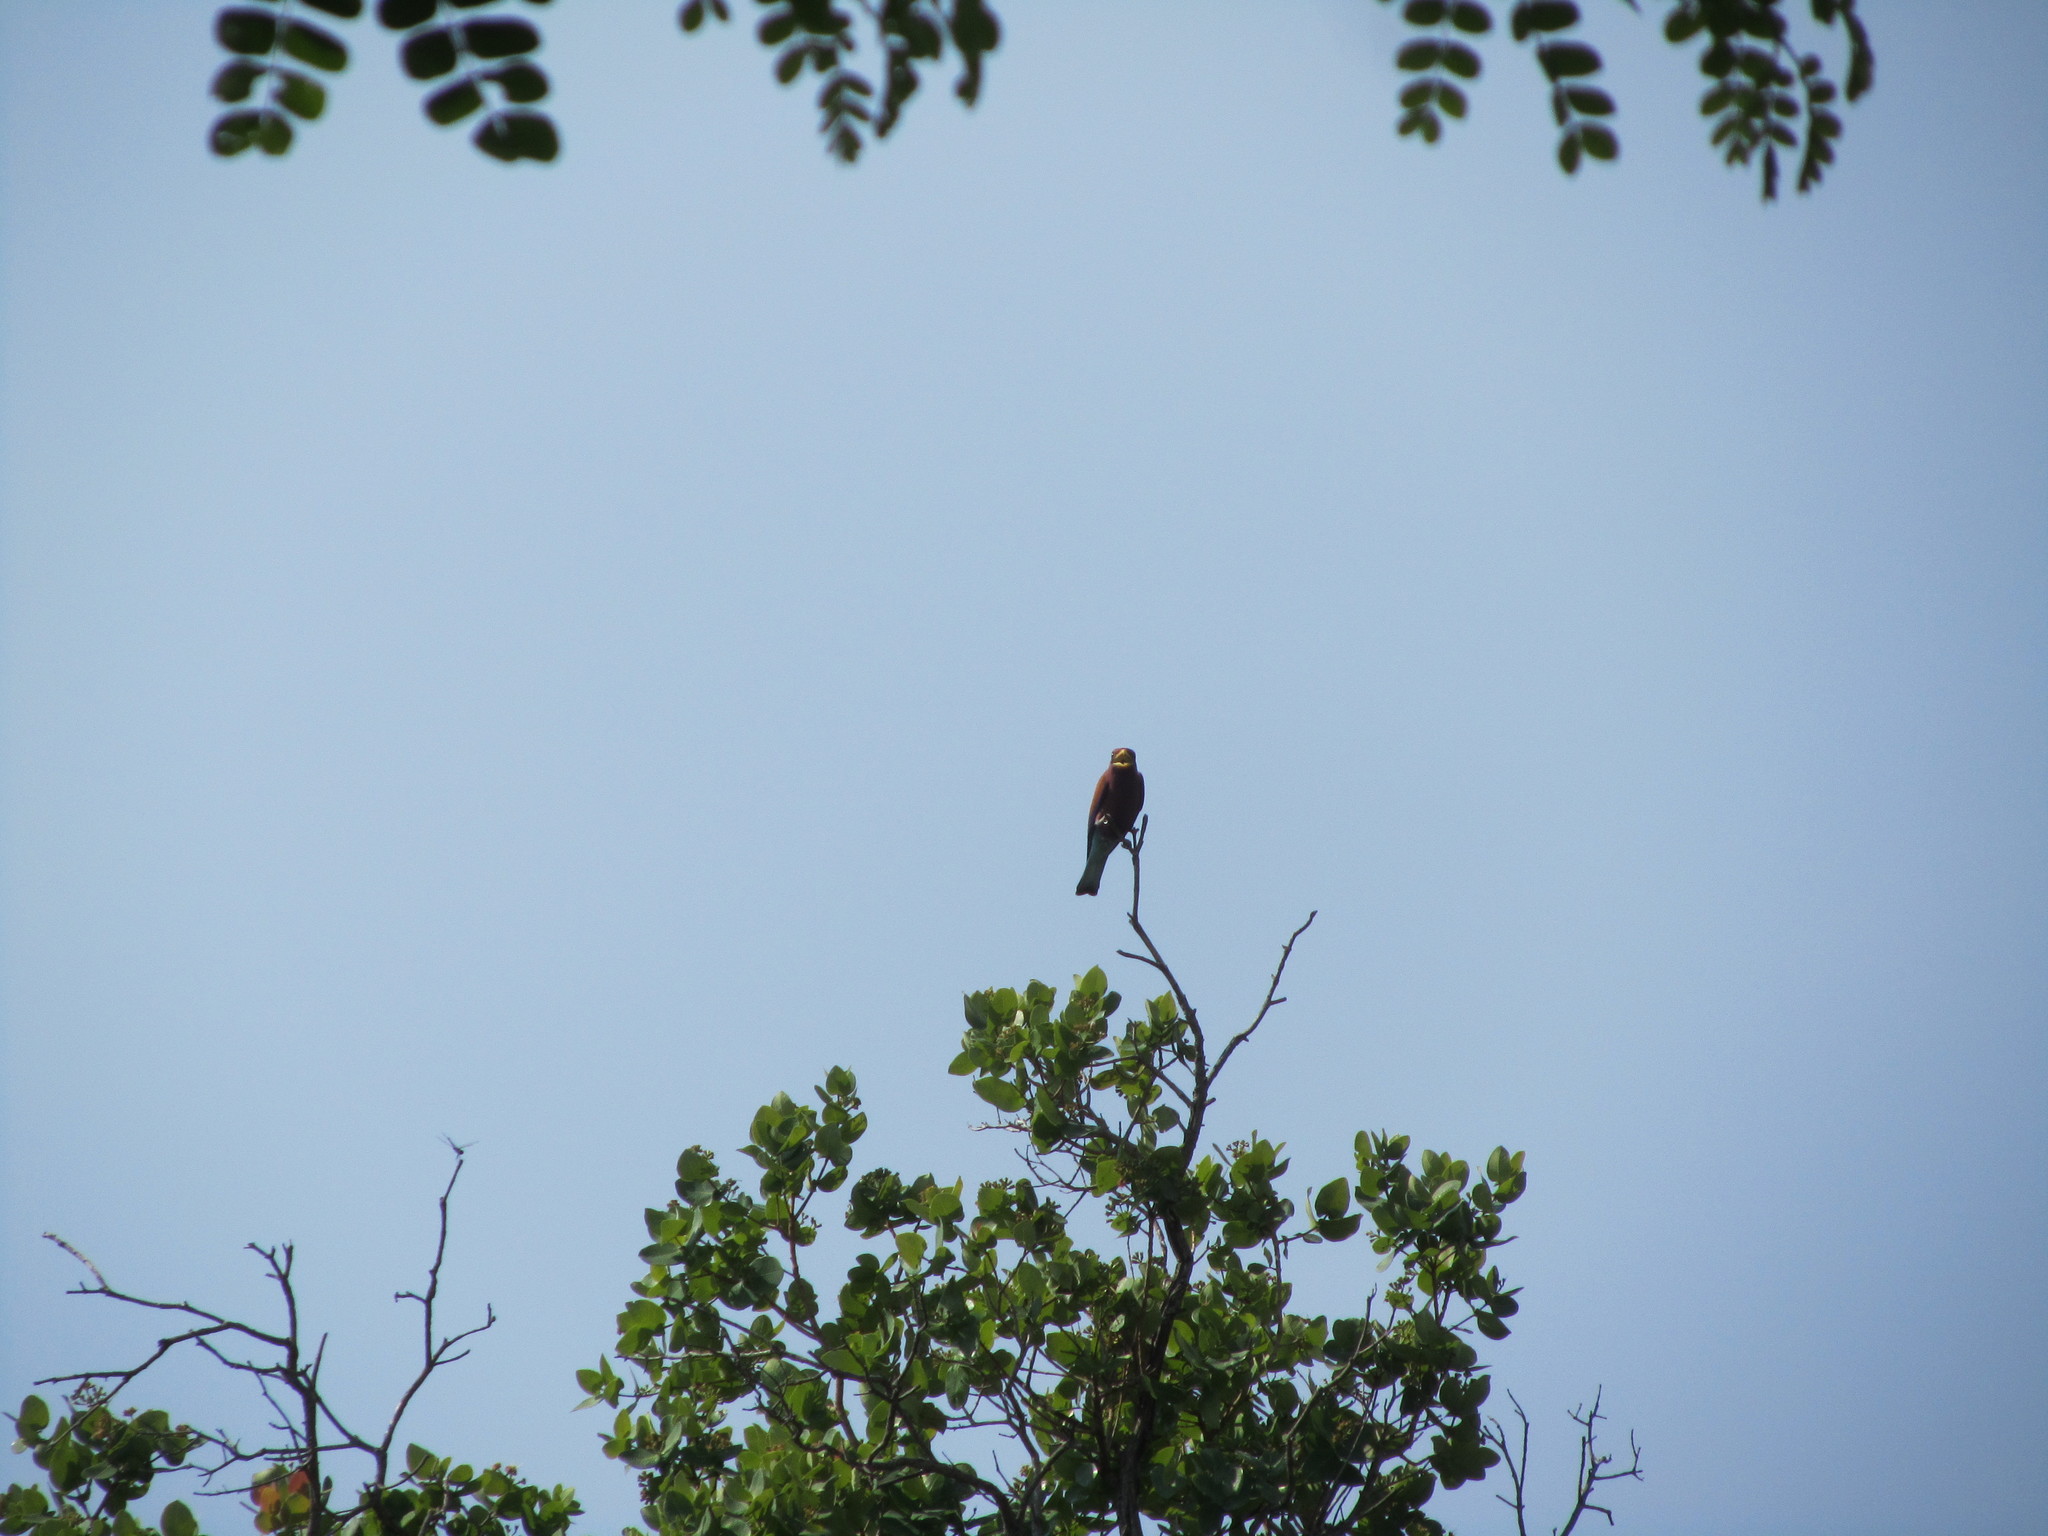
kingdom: Animalia
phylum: Chordata
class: Aves
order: Coraciiformes
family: Coraciidae
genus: Eurystomus
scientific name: Eurystomus glaucurus
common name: Broad-billed roller
